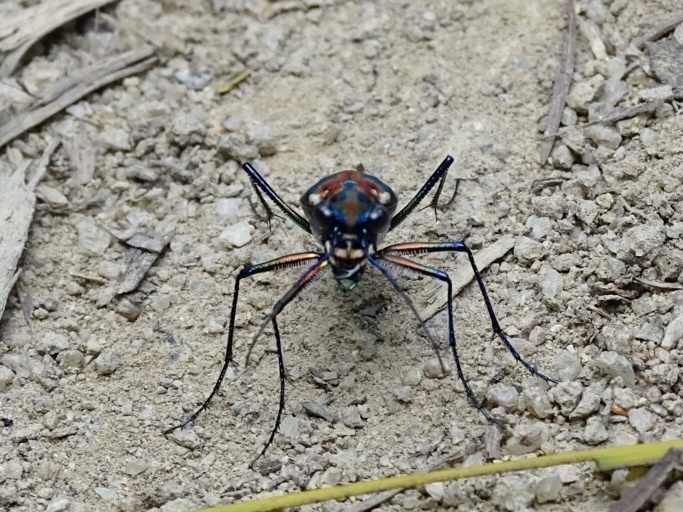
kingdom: Animalia
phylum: Arthropoda
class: Insecta
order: Coleoptera
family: Carabidae
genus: Cicindela
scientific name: Cicindela juxtata
